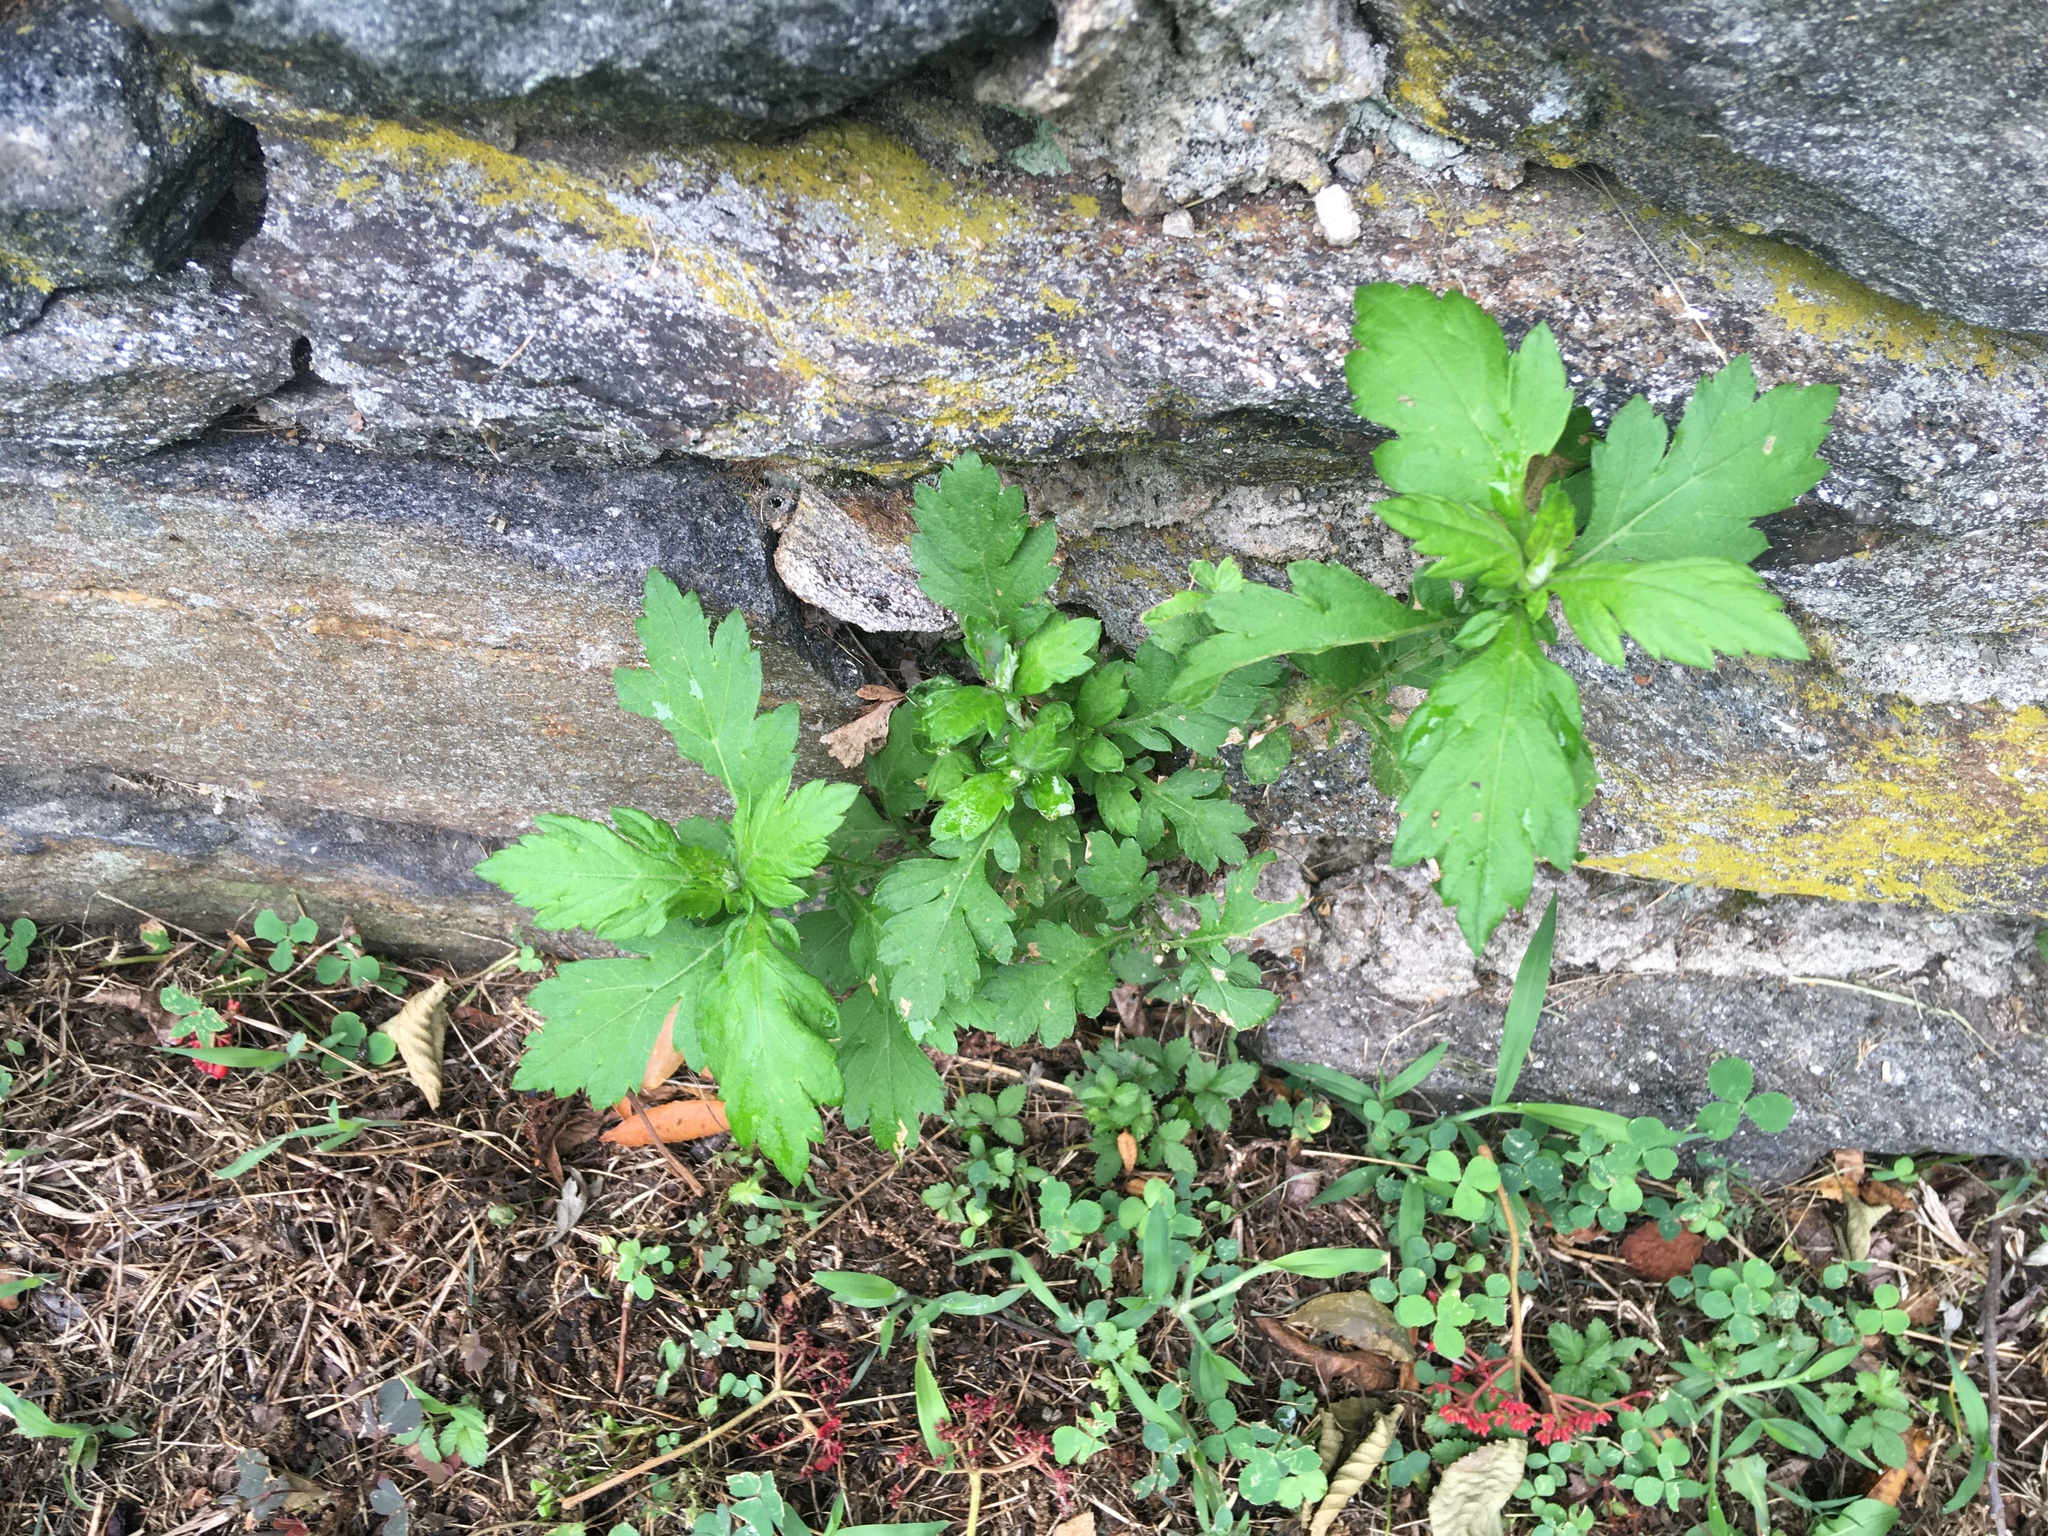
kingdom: Plantae
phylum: Tracheophyta
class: Magnoliopsida
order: Asterales
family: Asteraceae
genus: Artemisia
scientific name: Artemisia vulgaris
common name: Mugwort
